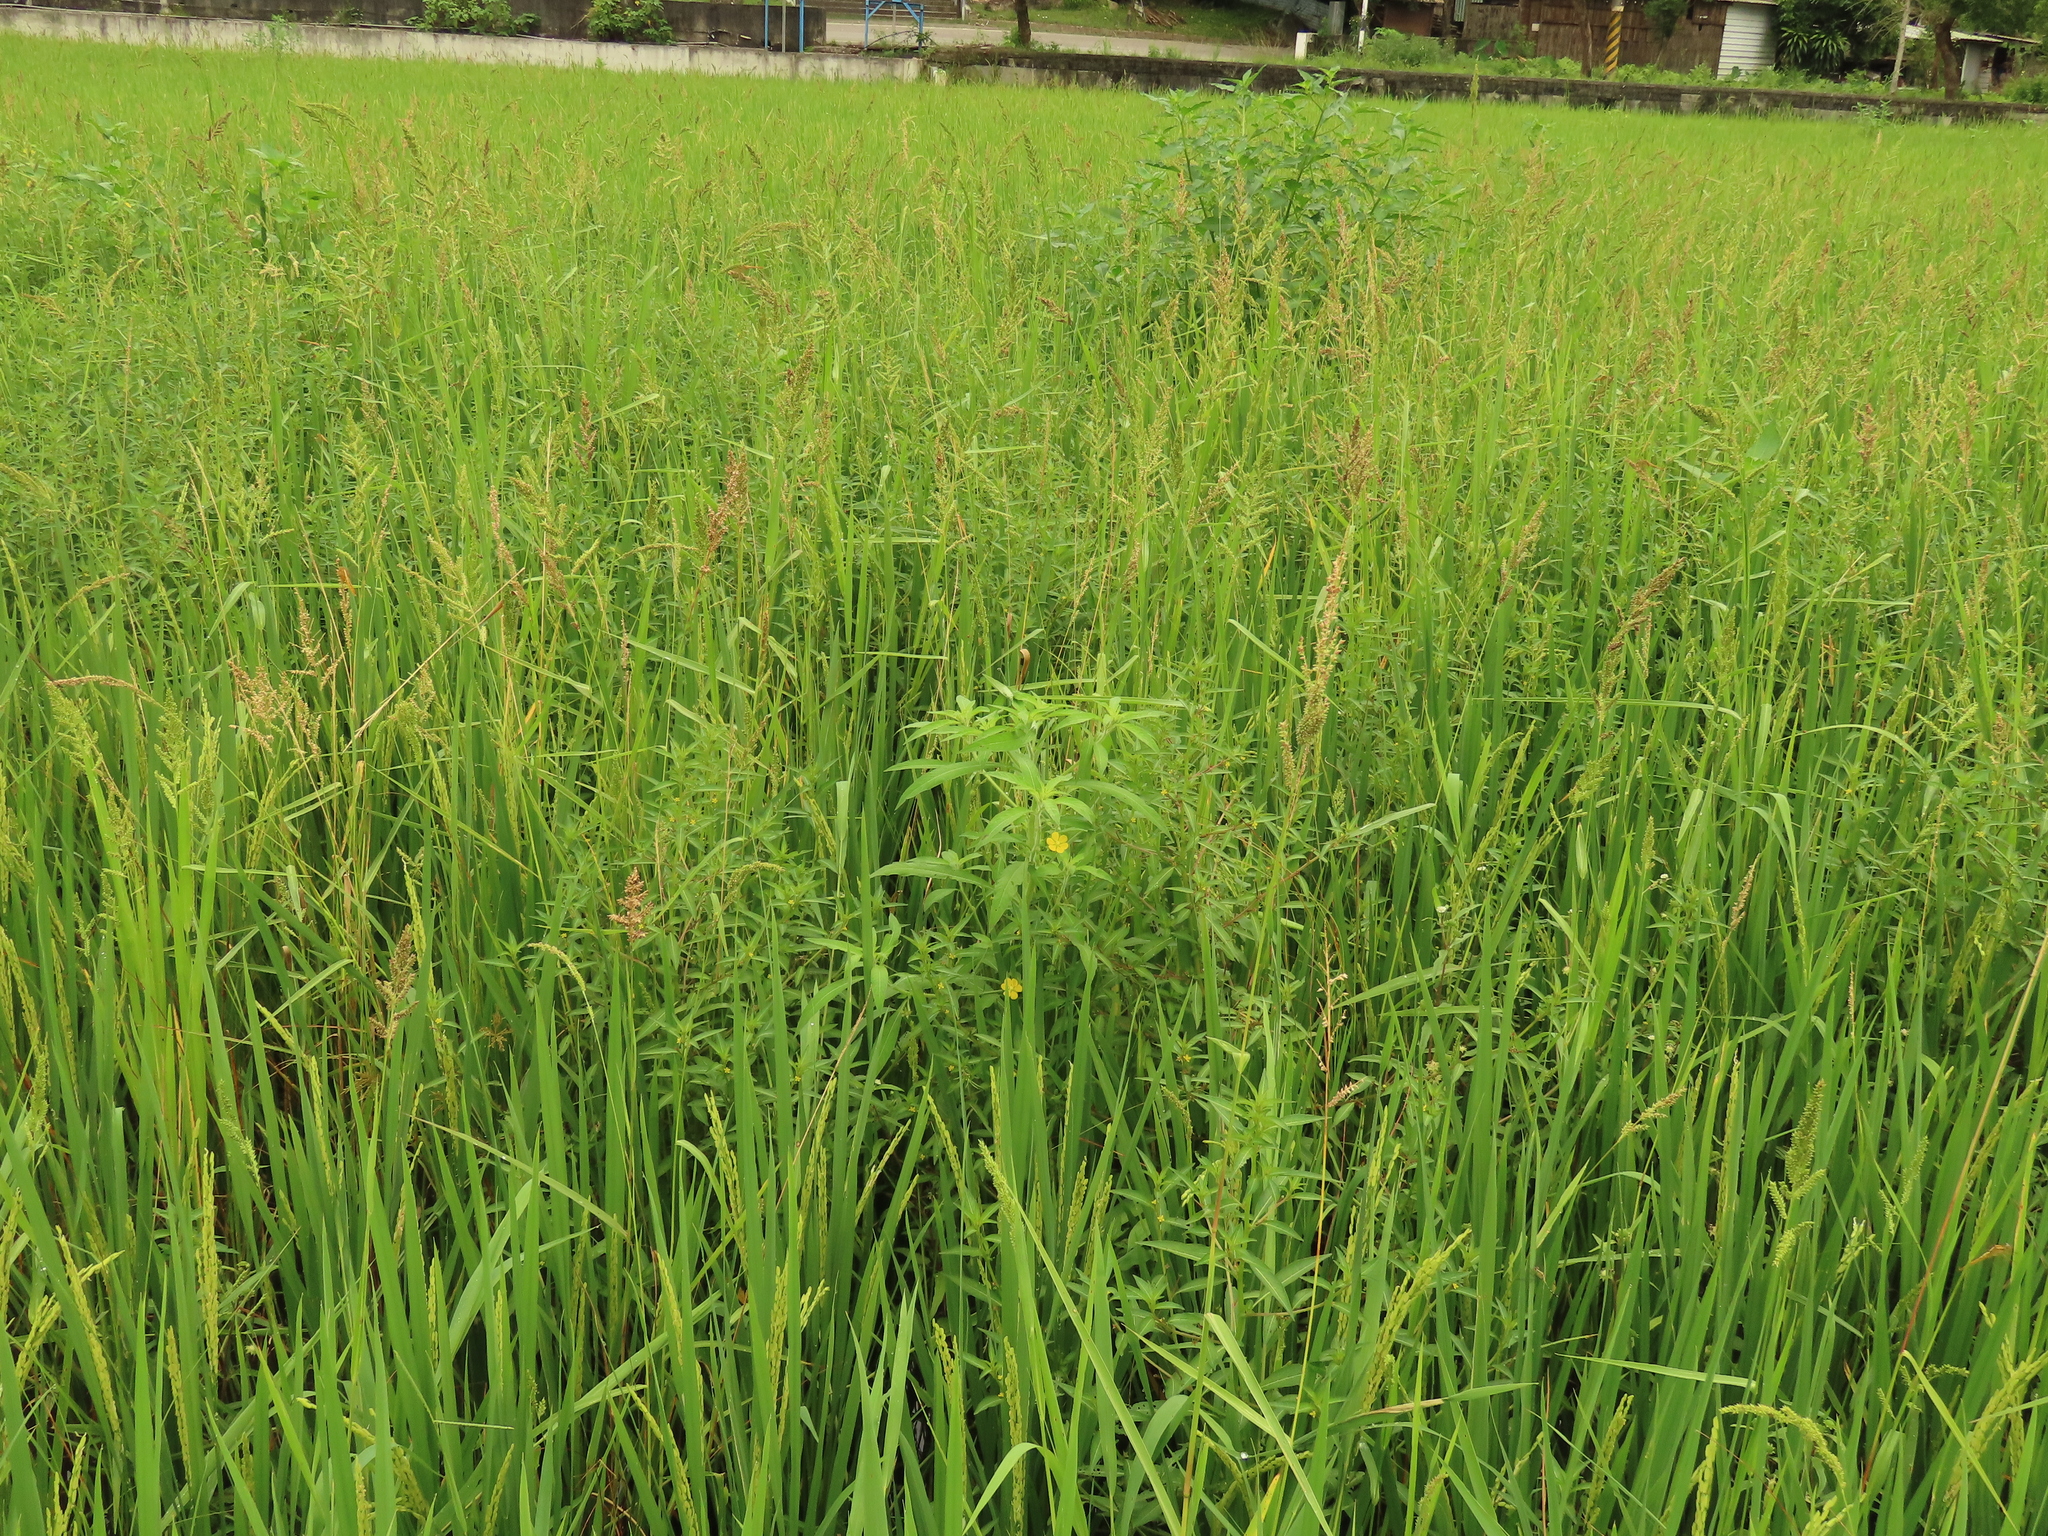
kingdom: Plantae
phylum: Tracheophyta
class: Magnoliopsida
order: Myrtales
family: Onagraceae
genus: Ludwigia
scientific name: Ludwigia octovalvis
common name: Water-primrose
